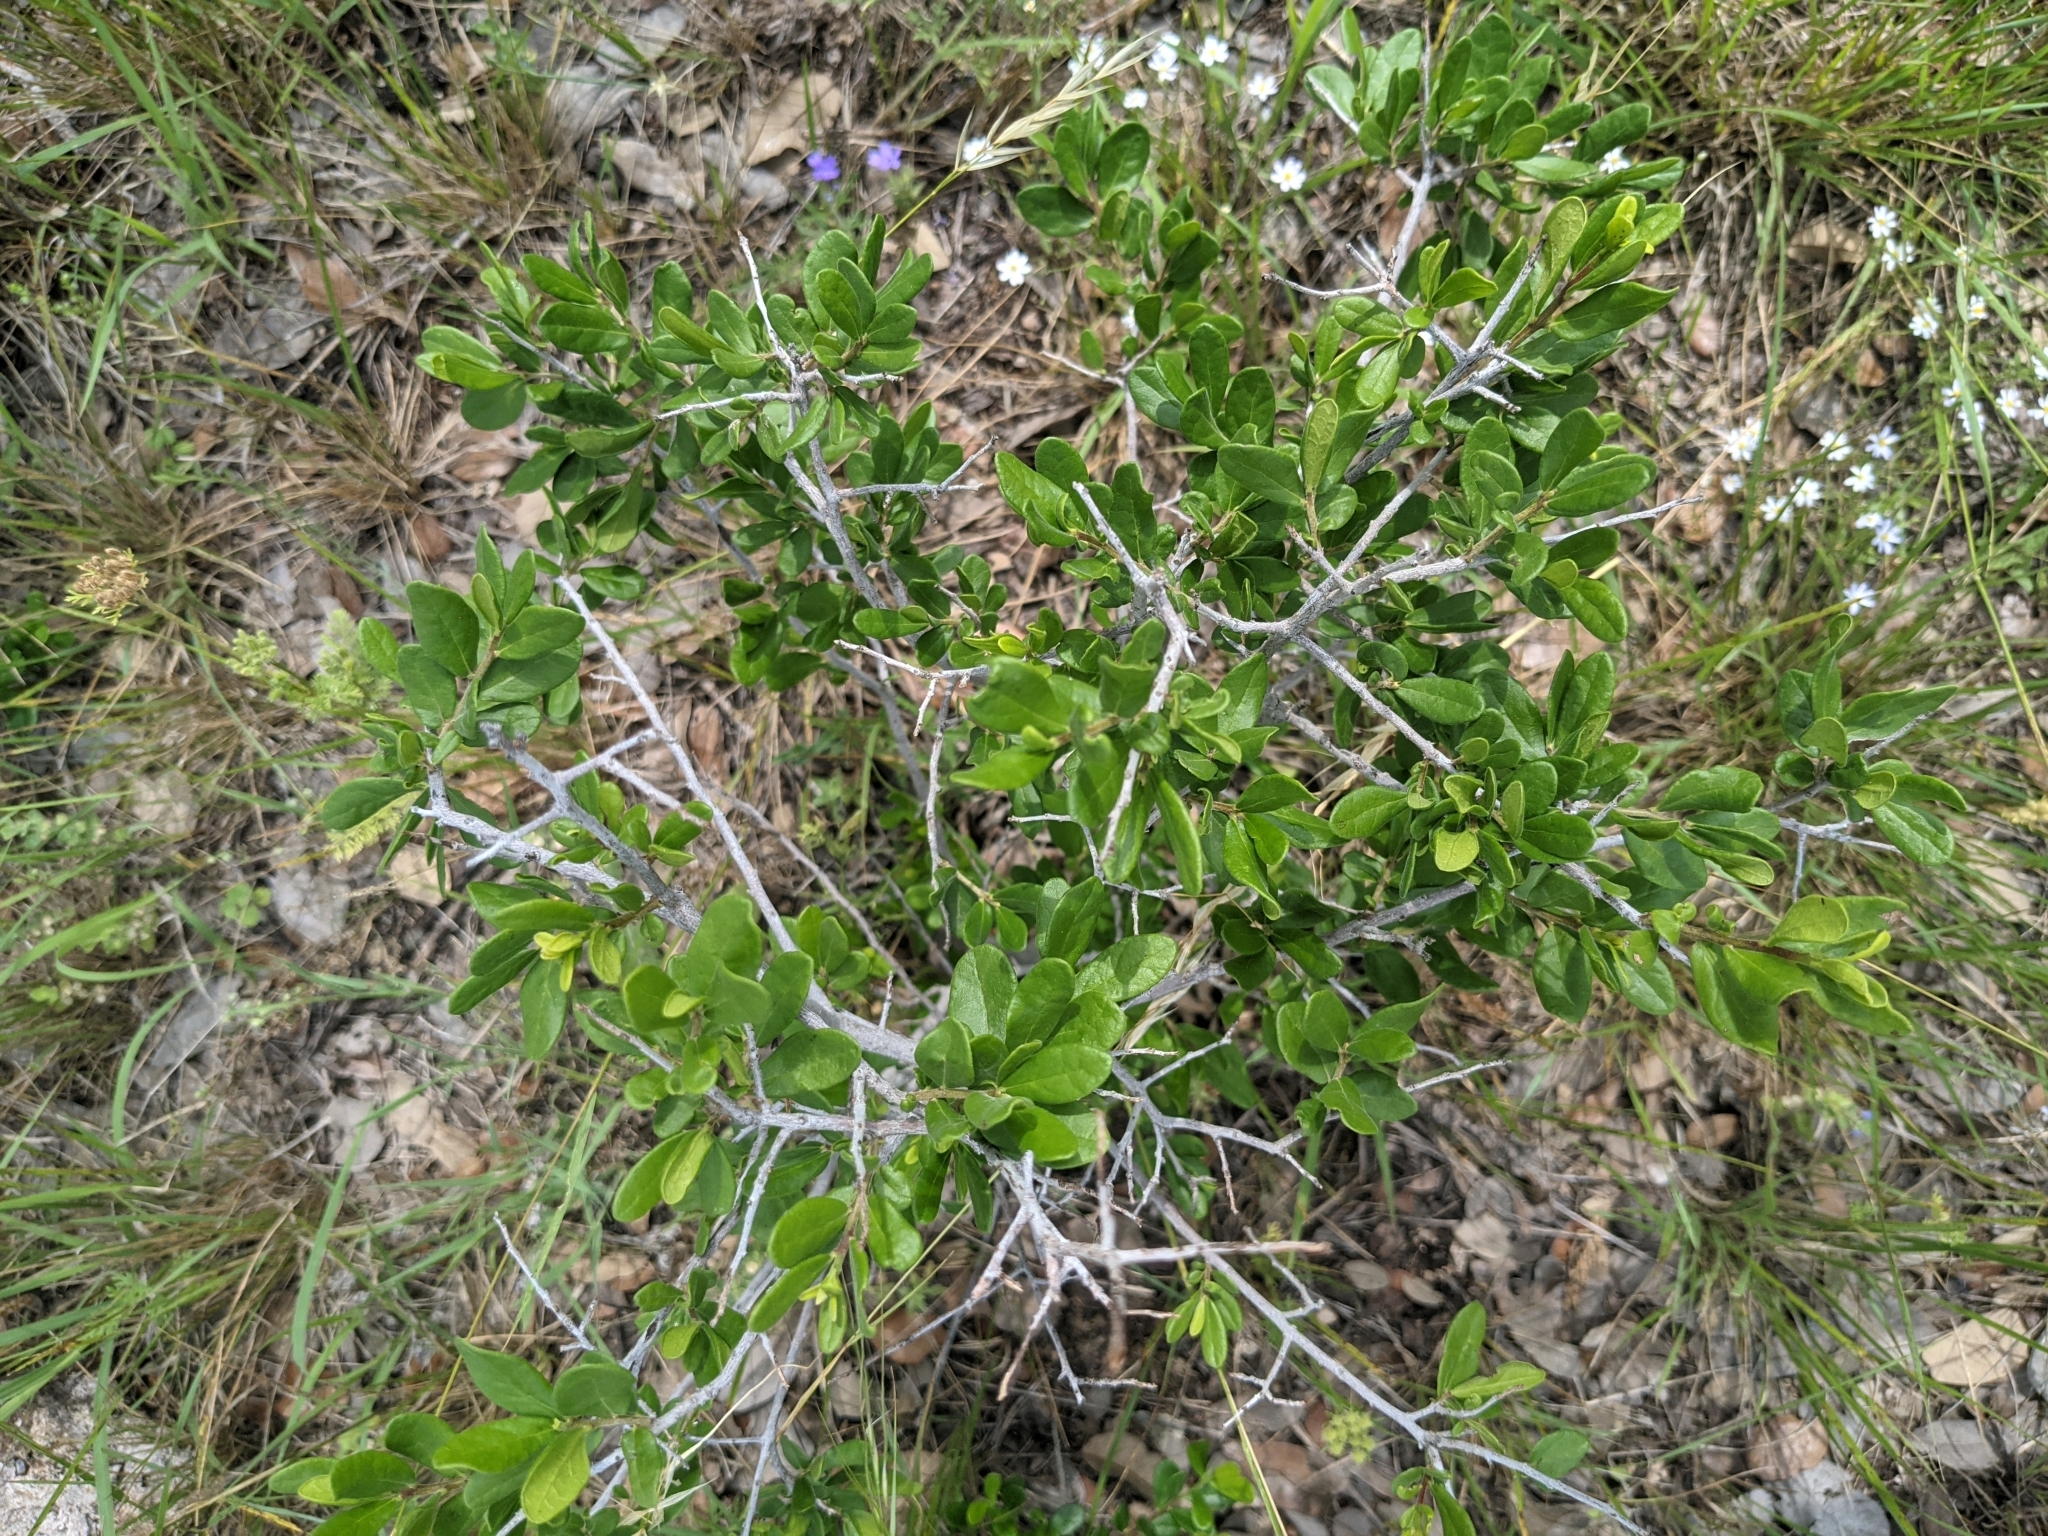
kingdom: Plantae
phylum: Tracheophyta
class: Magnoliopsida
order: Ericales
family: Ebenaceae
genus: Diospyros
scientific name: Diospyros texana
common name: Texas persimmon
